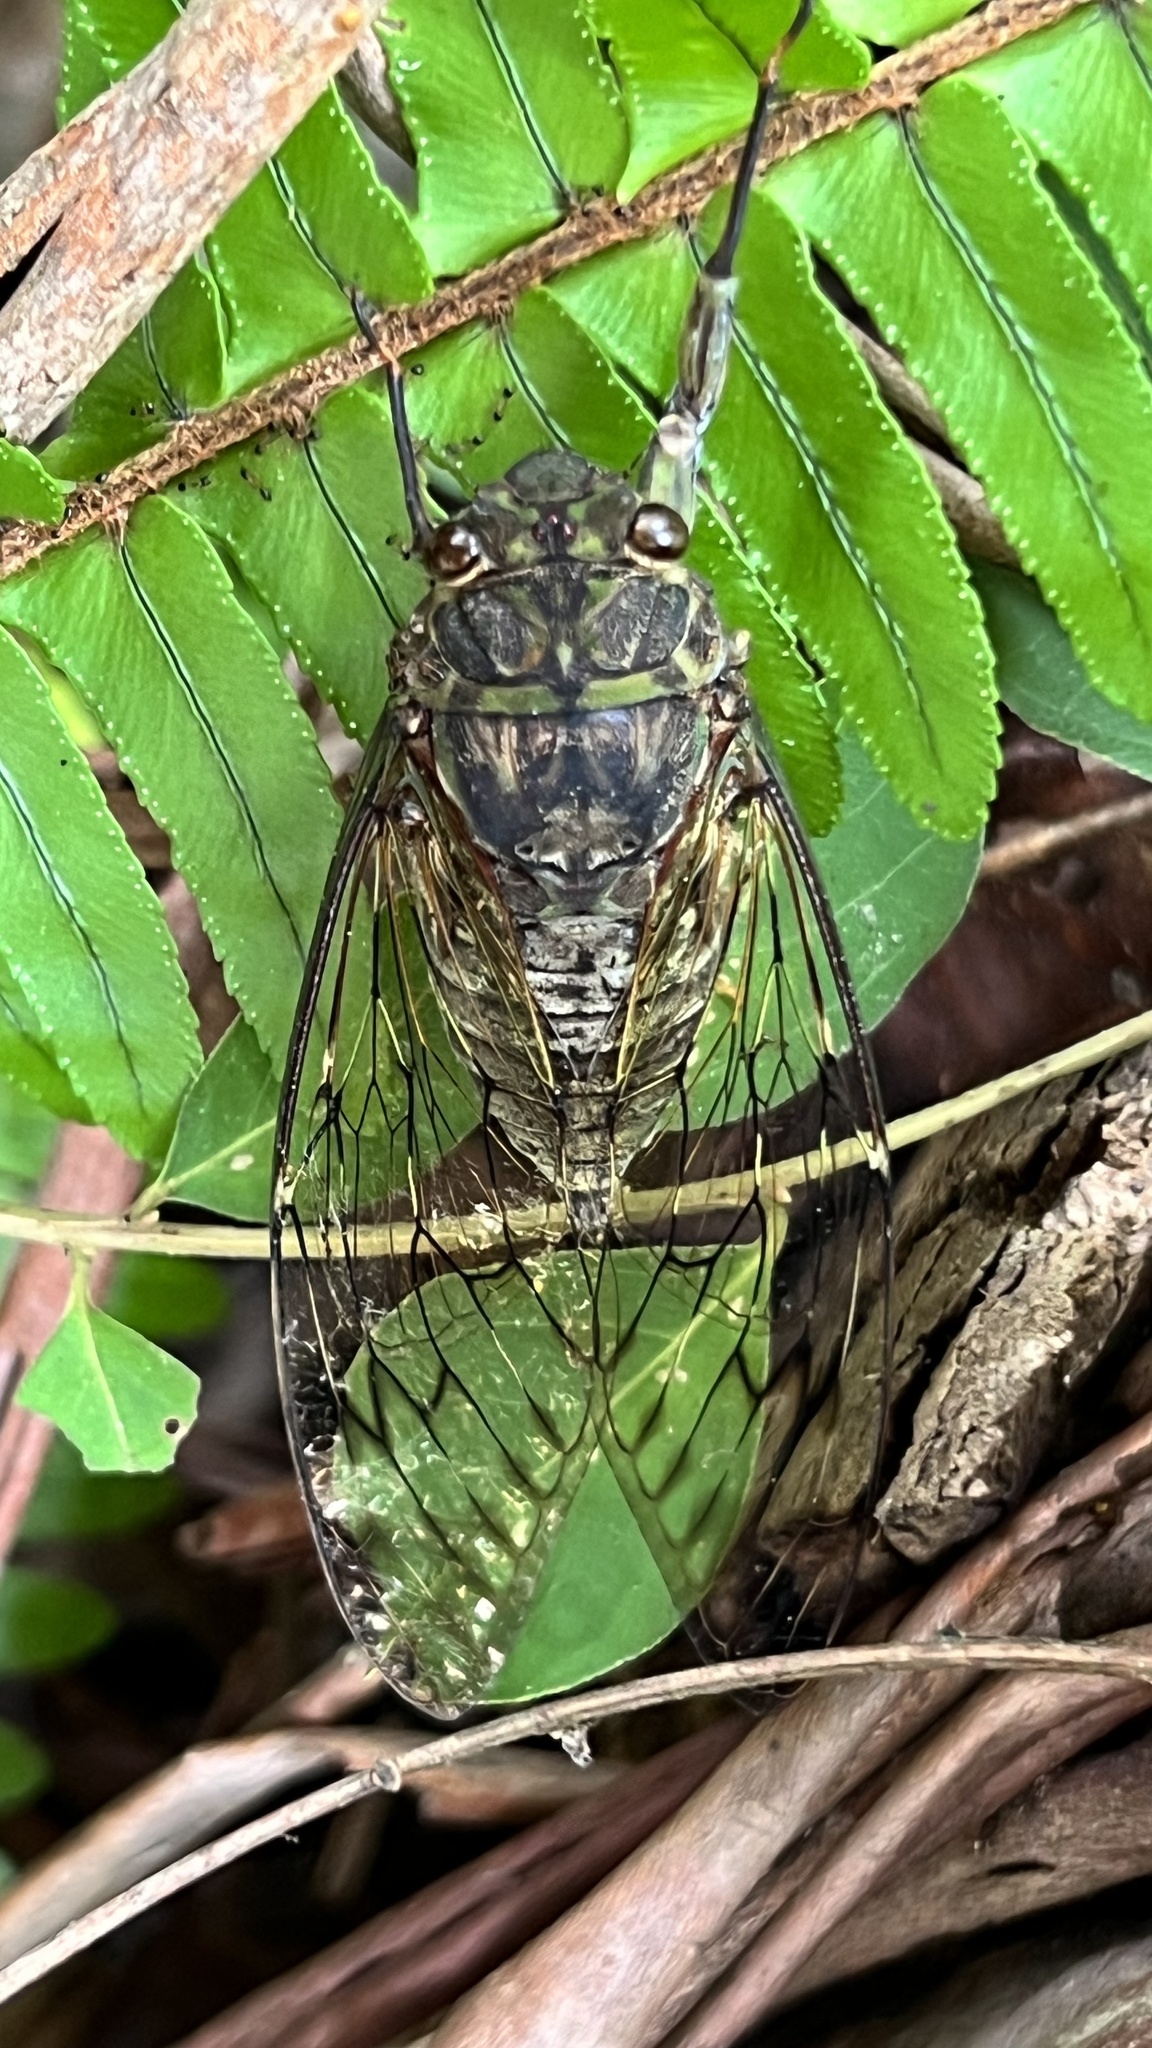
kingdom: Animalia
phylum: Arthropoda
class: Insecta
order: Hemiptera
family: Cicadidae
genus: Pomponia
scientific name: Pomponia yayeyamana
